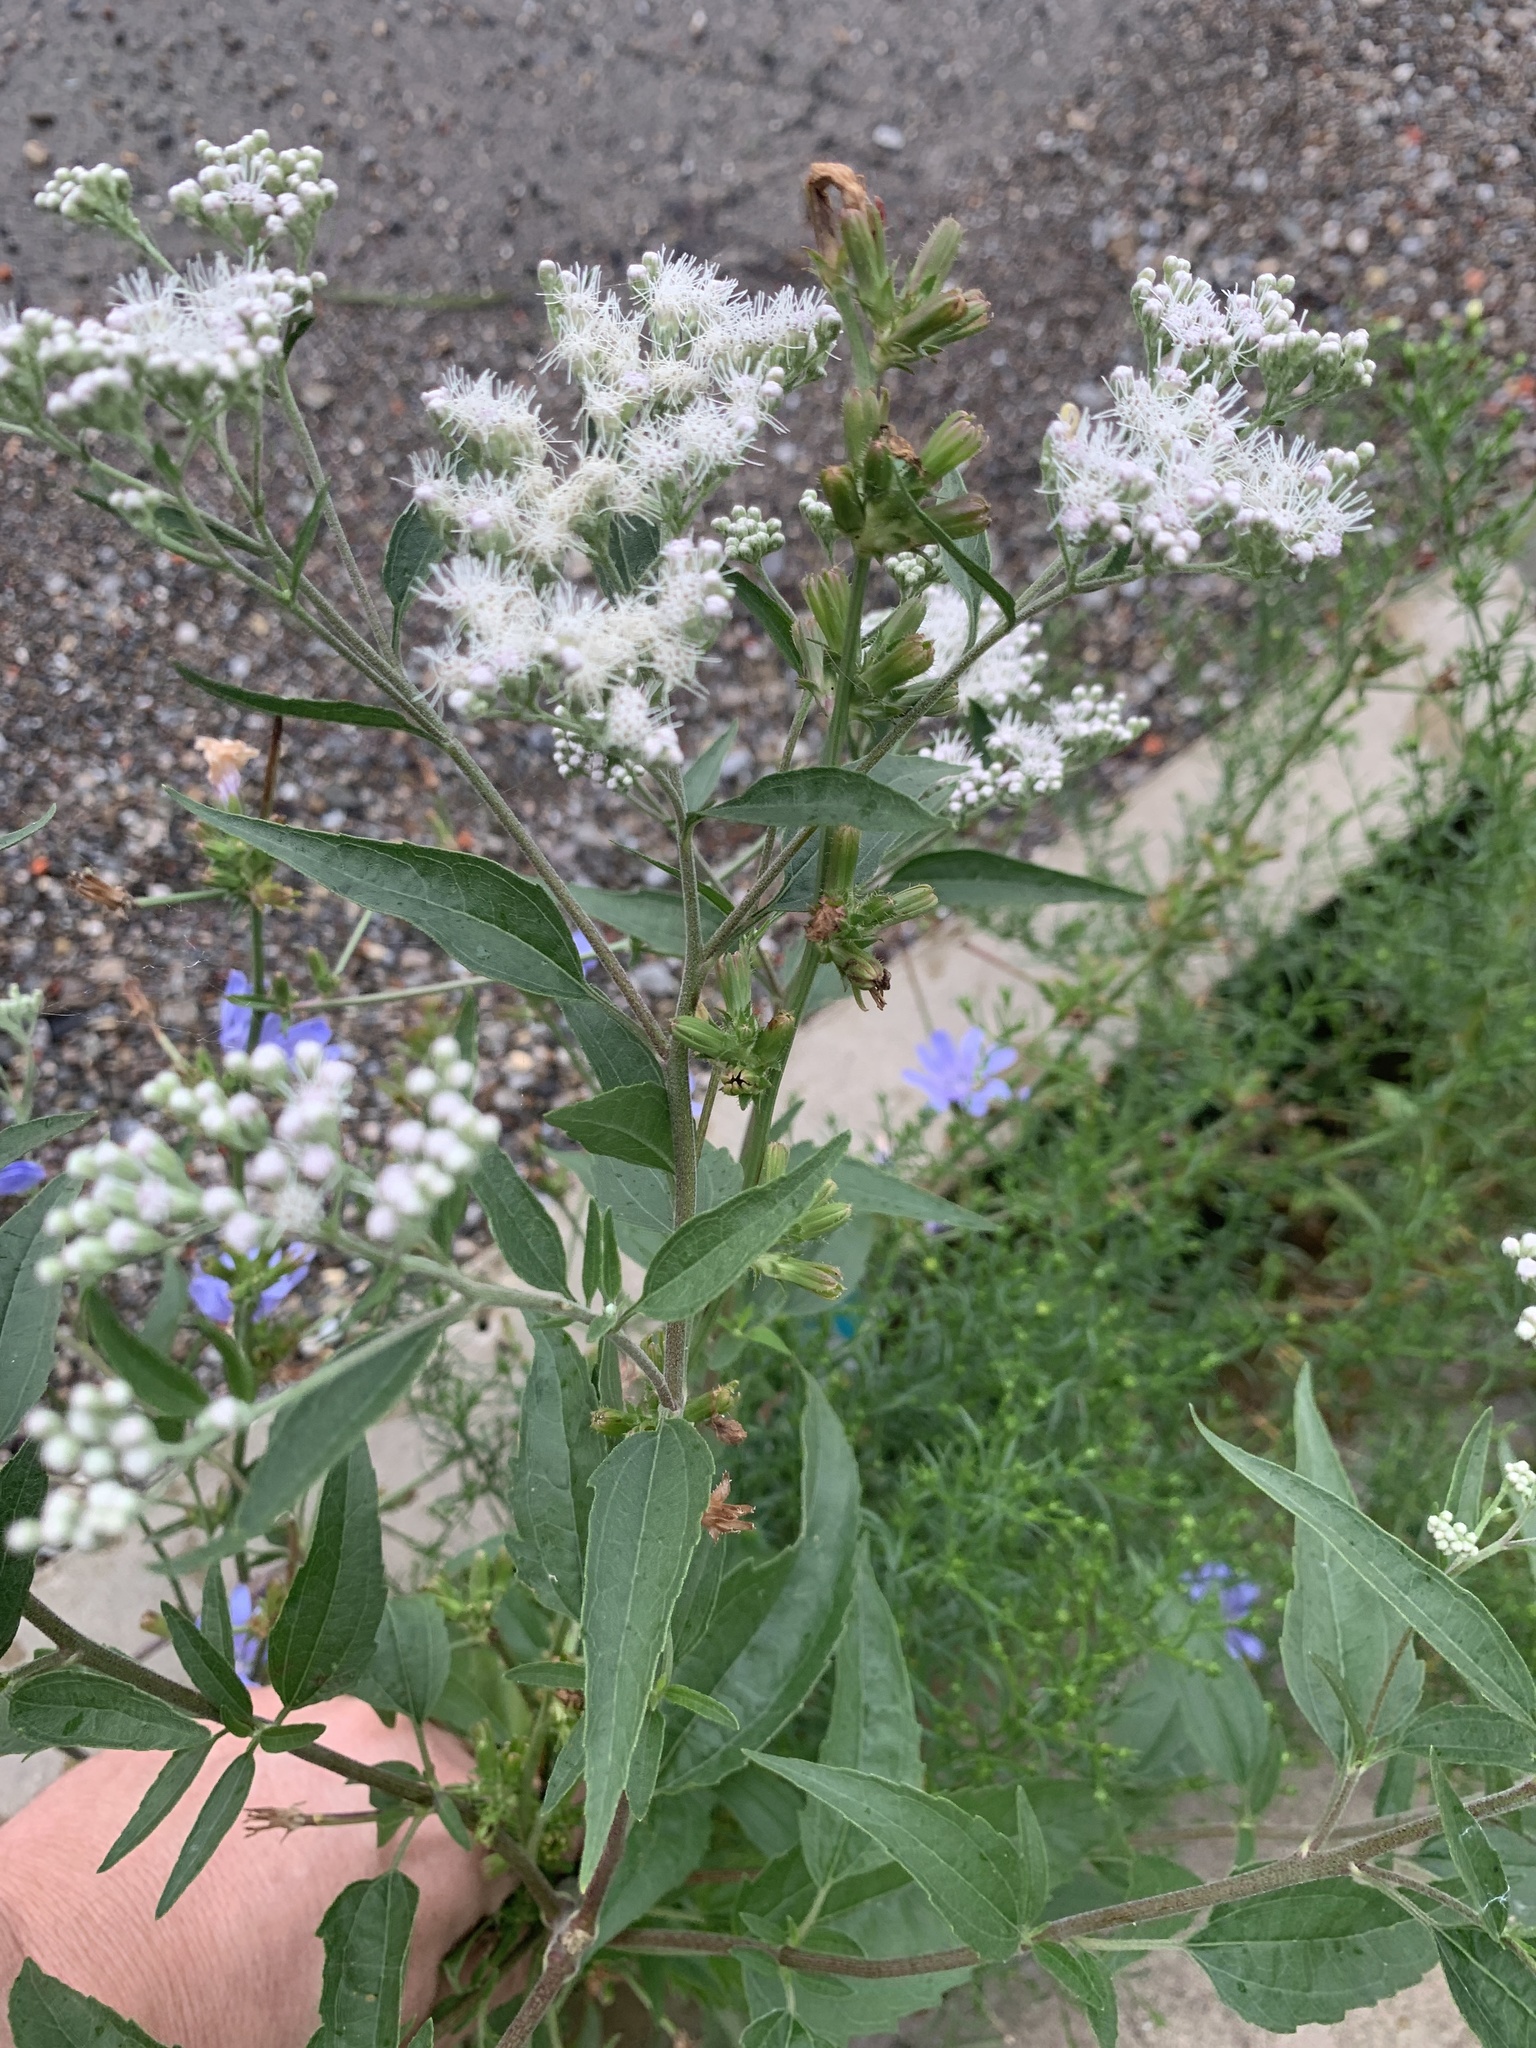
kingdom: Plantae
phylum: Tracheophyta
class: Magnoliopsida
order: Asterales
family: Asteraceae
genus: Eupatorium
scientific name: Eupatorium serotinum
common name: Late boneset
